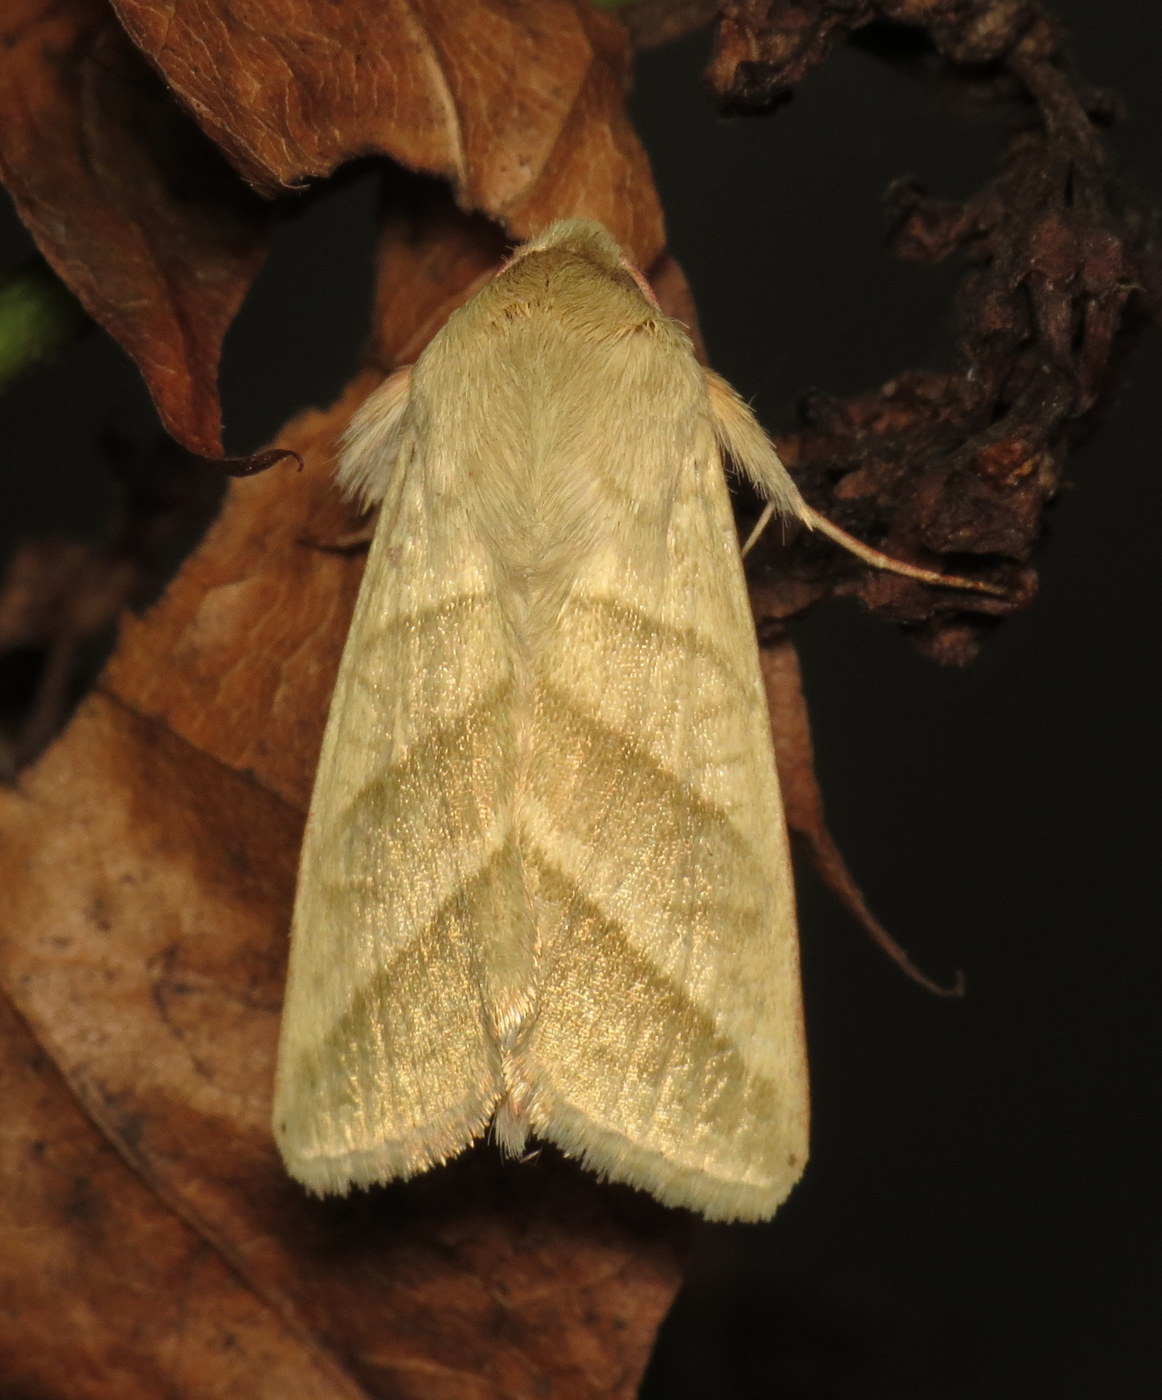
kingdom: Animalia
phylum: Arthropoda
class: Insecta
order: Lepidoptera
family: Noctuidae
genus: Chloridea
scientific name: Chloridea virescens
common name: Tobacco budworm
